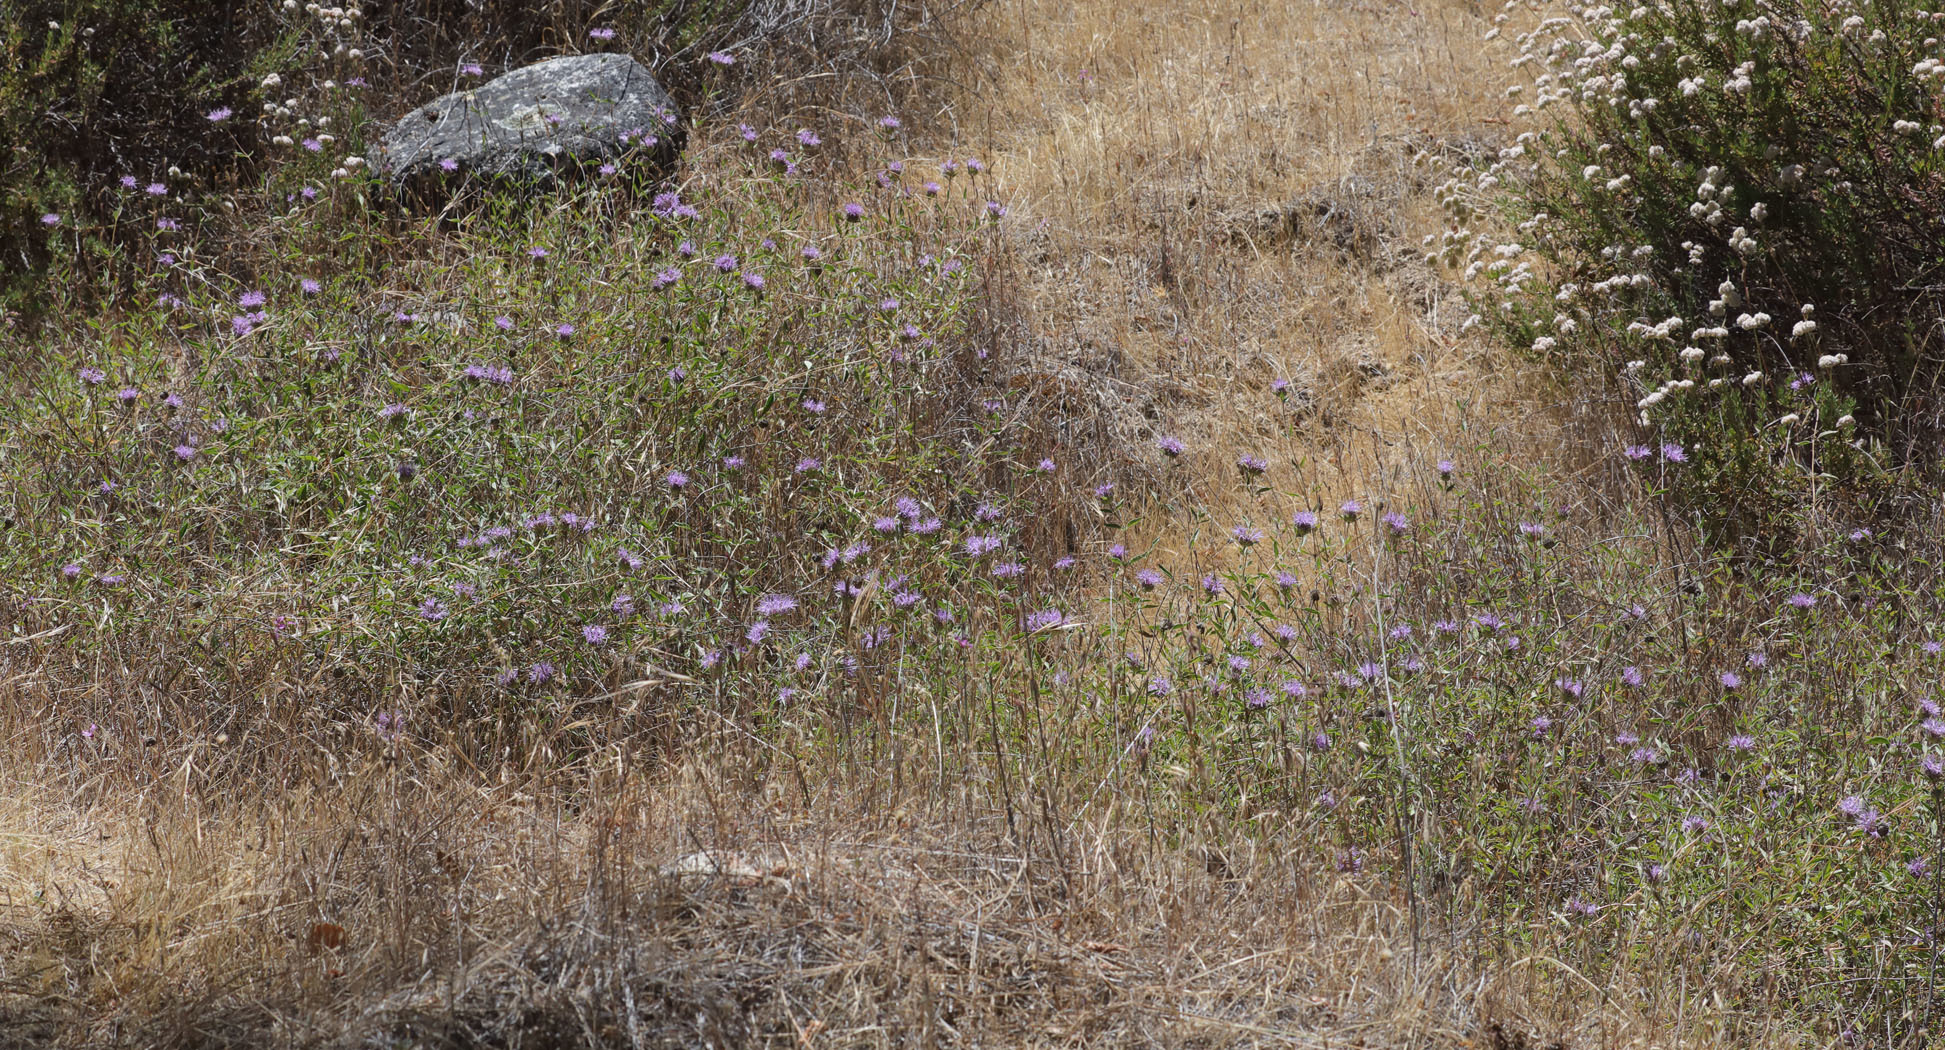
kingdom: Plantae
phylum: Tracheophyta
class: Magnoliopsida
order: Lamiales
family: Lamiaceae
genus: Monardella
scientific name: Monardella odoratissima
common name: Pacific monardella
